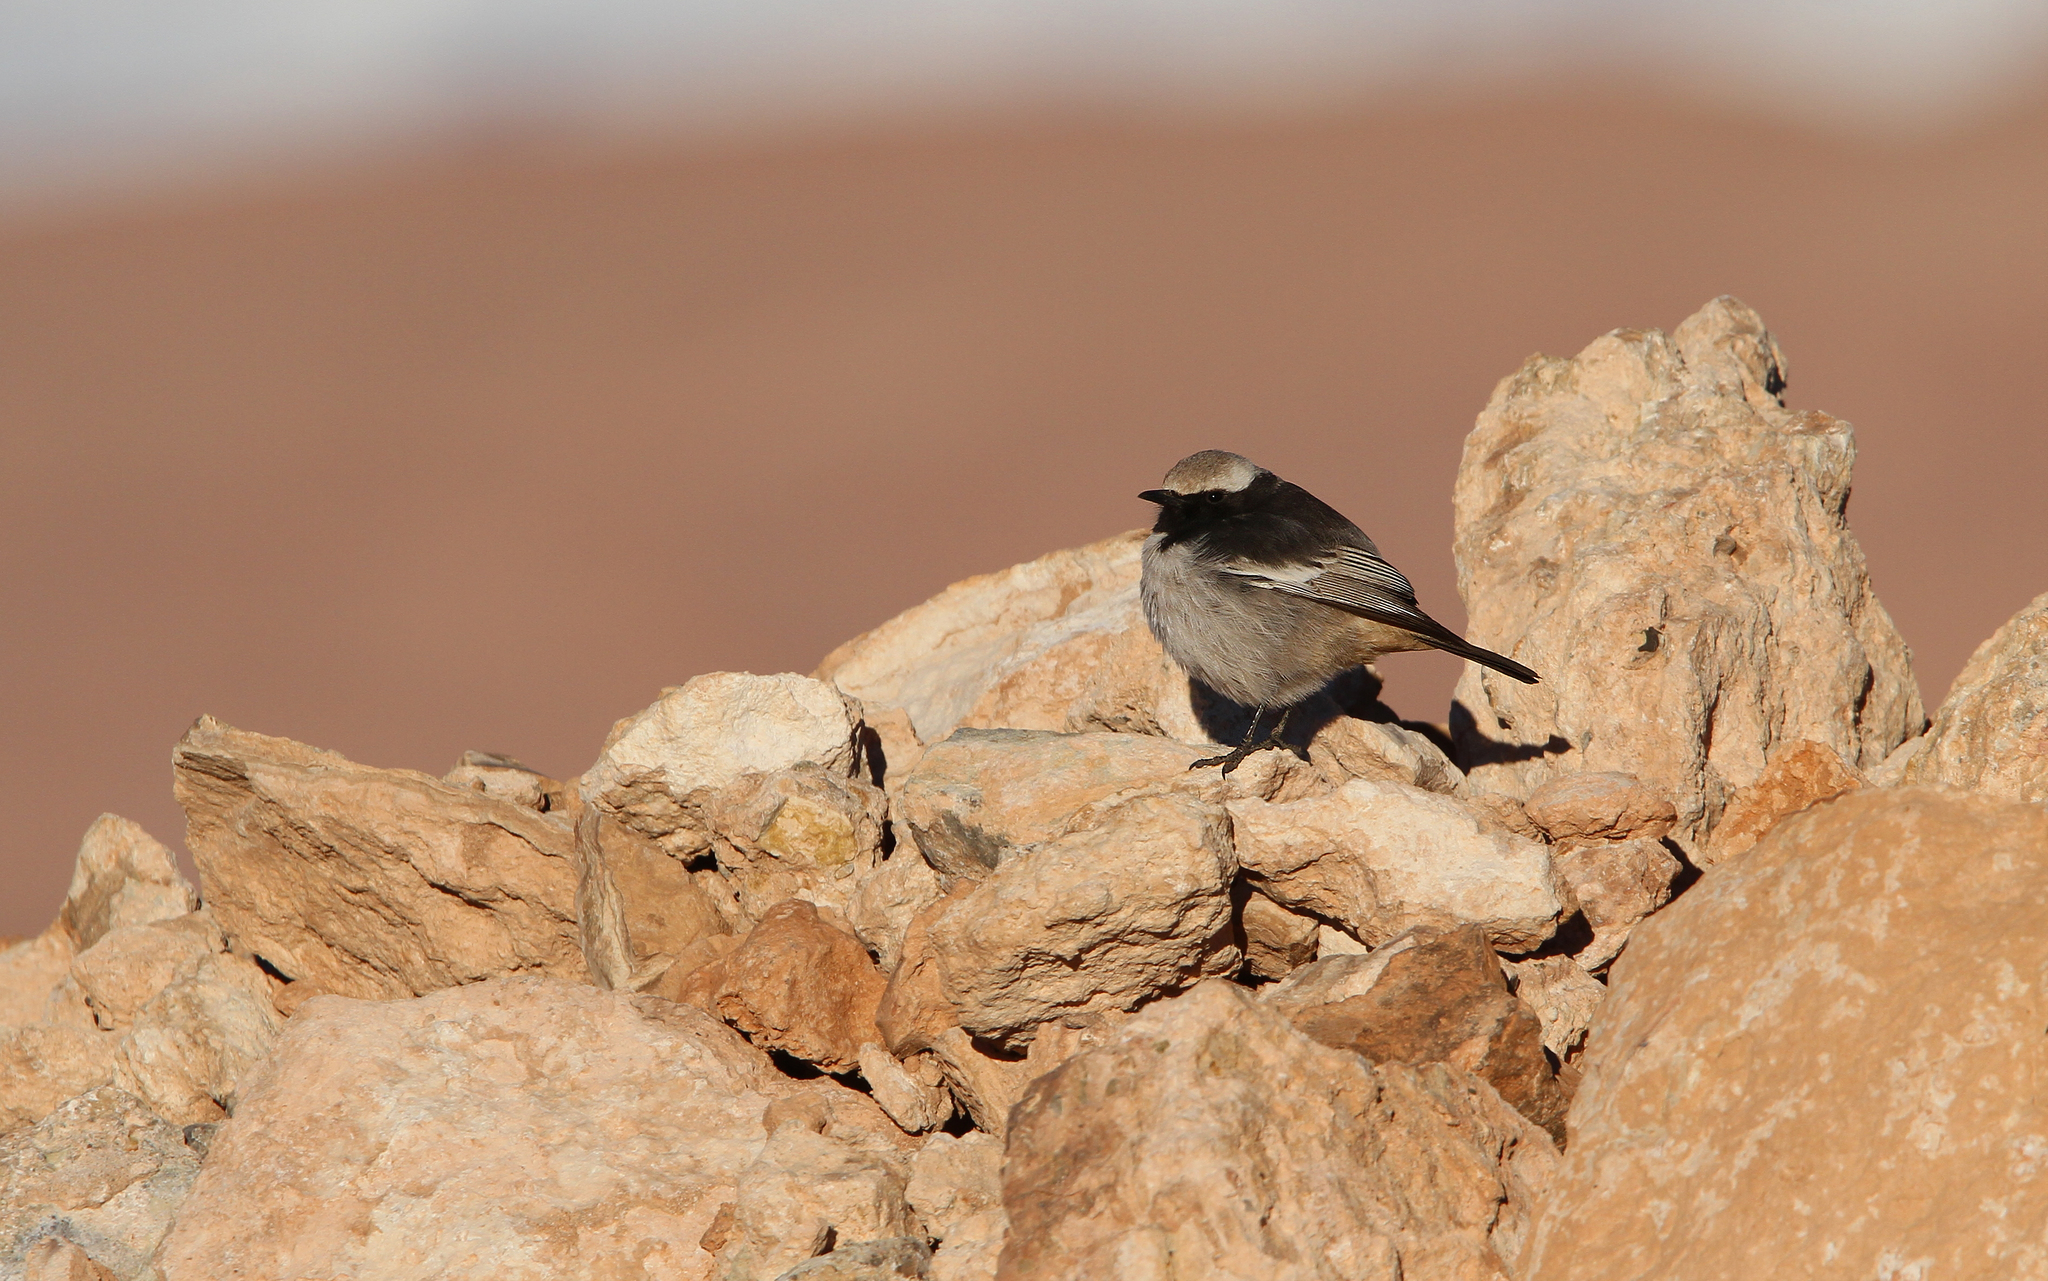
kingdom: Animalia
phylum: Chordata
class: Aves
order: Passeriformes
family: Muscicapidae
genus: Oenanthe
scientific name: Oenanthe moesta
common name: Red-rumped wheatear
